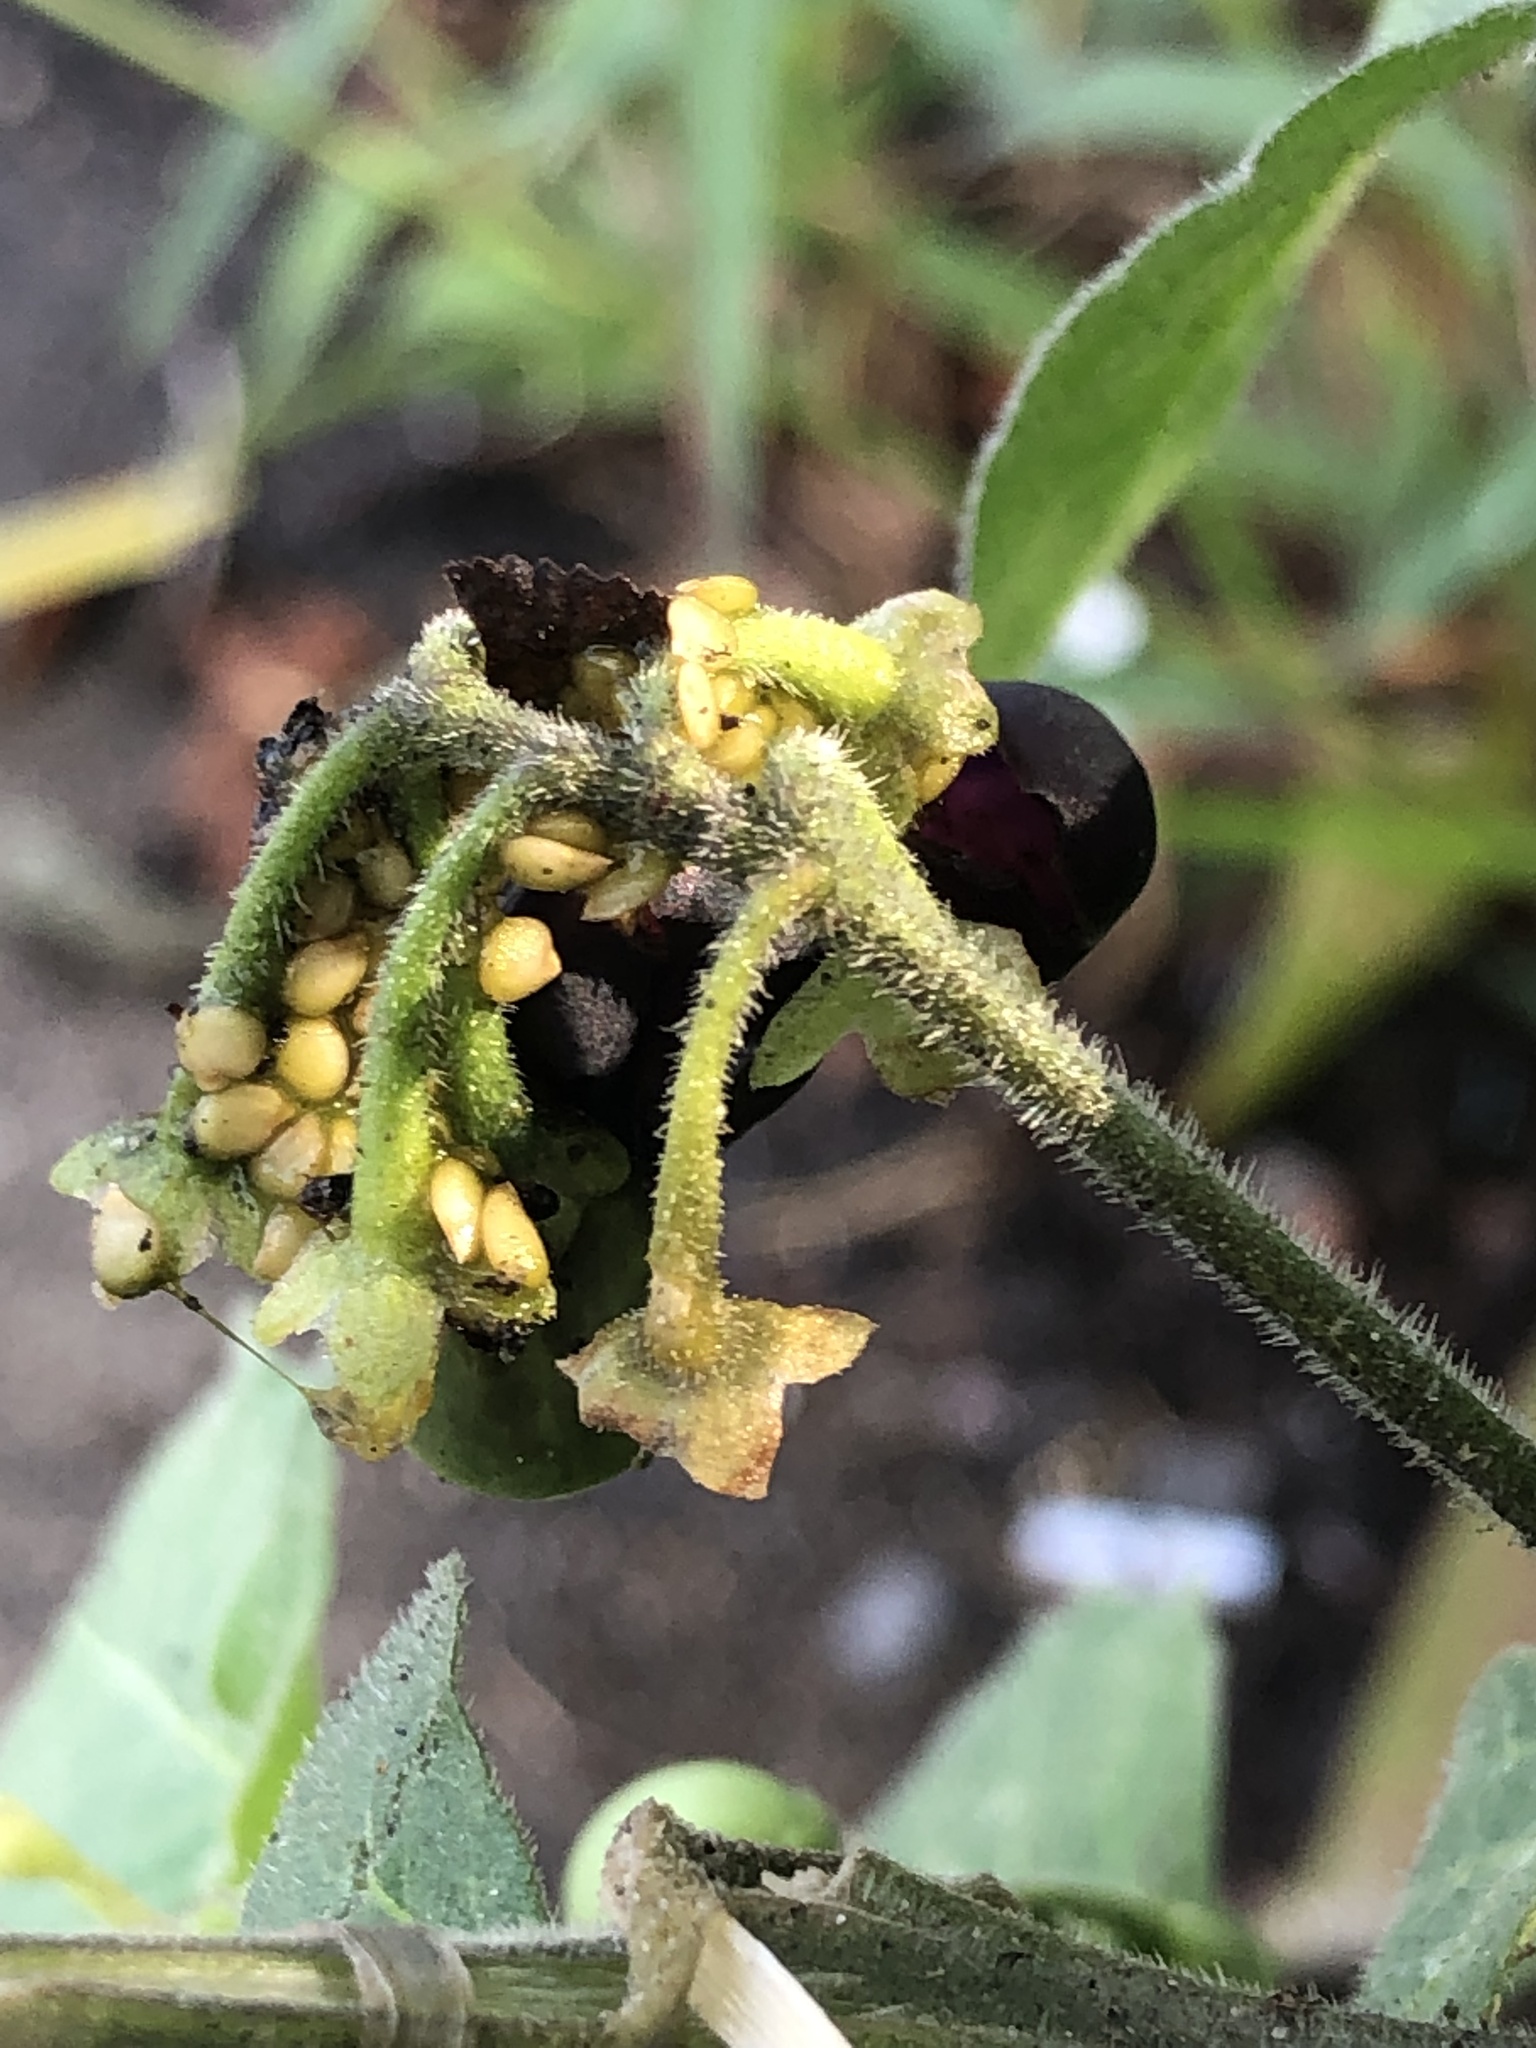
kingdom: Plantae
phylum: Tracheophyta
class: Magnoliopsida
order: Solanales
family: Solanaceae
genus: Solanum
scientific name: Solanum nigrum
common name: Black nightshade
